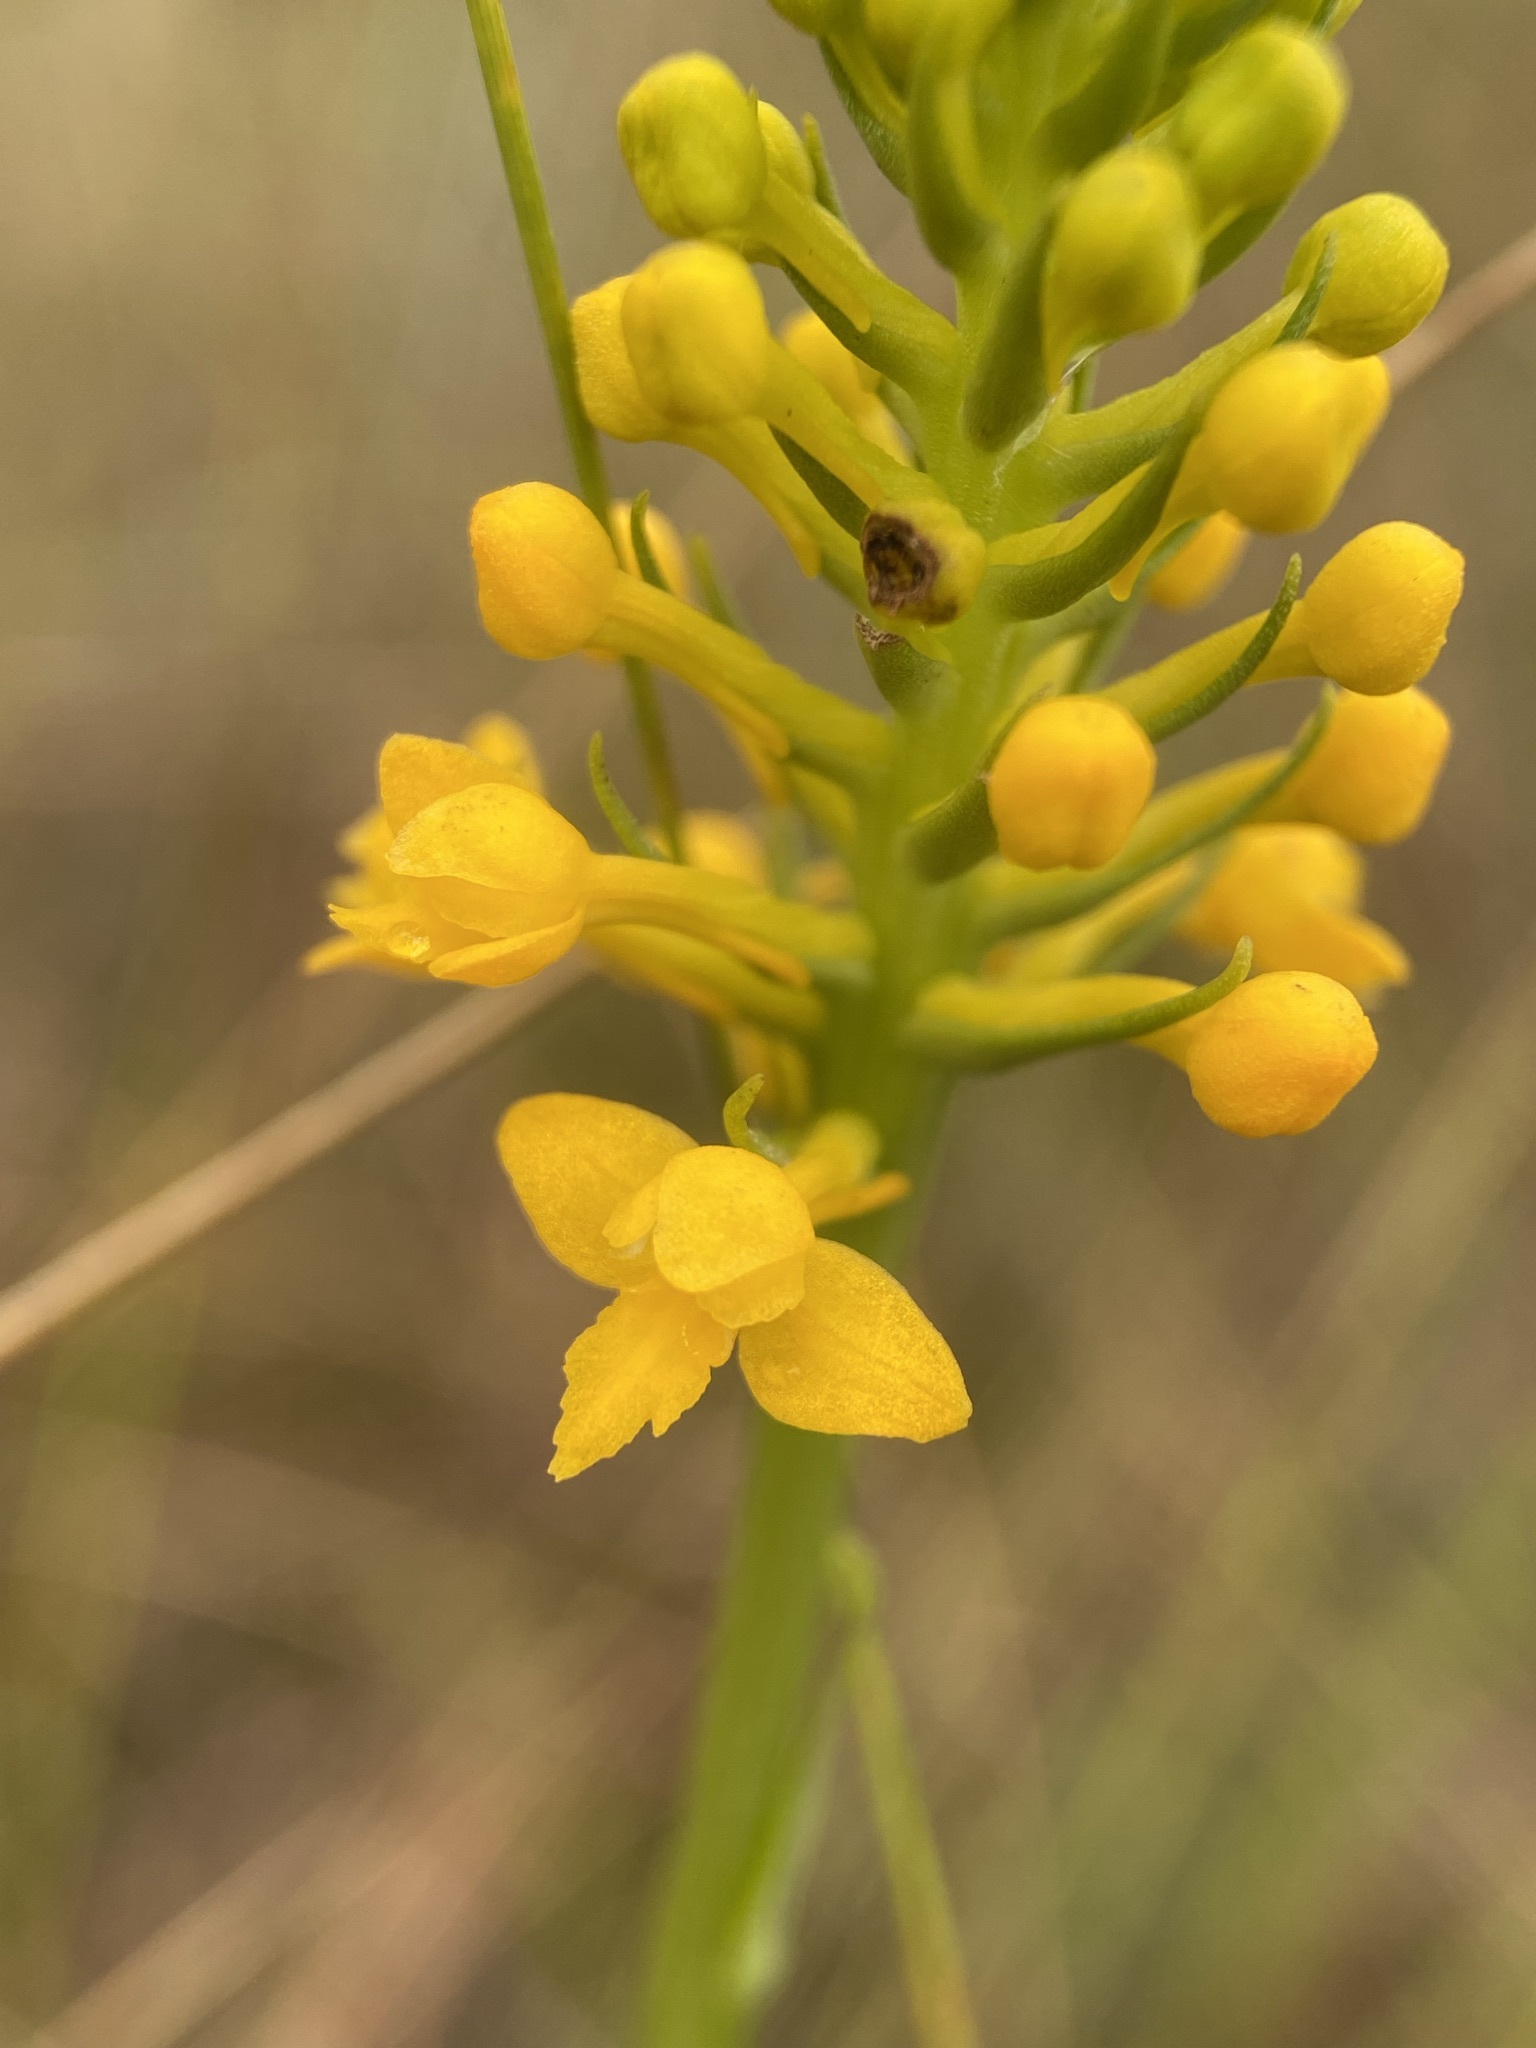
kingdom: Plantae
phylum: Tracheophyta
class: Liliopsida
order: Asparagales
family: Orchidaceae
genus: Platanthera
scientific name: Platanthera integra
